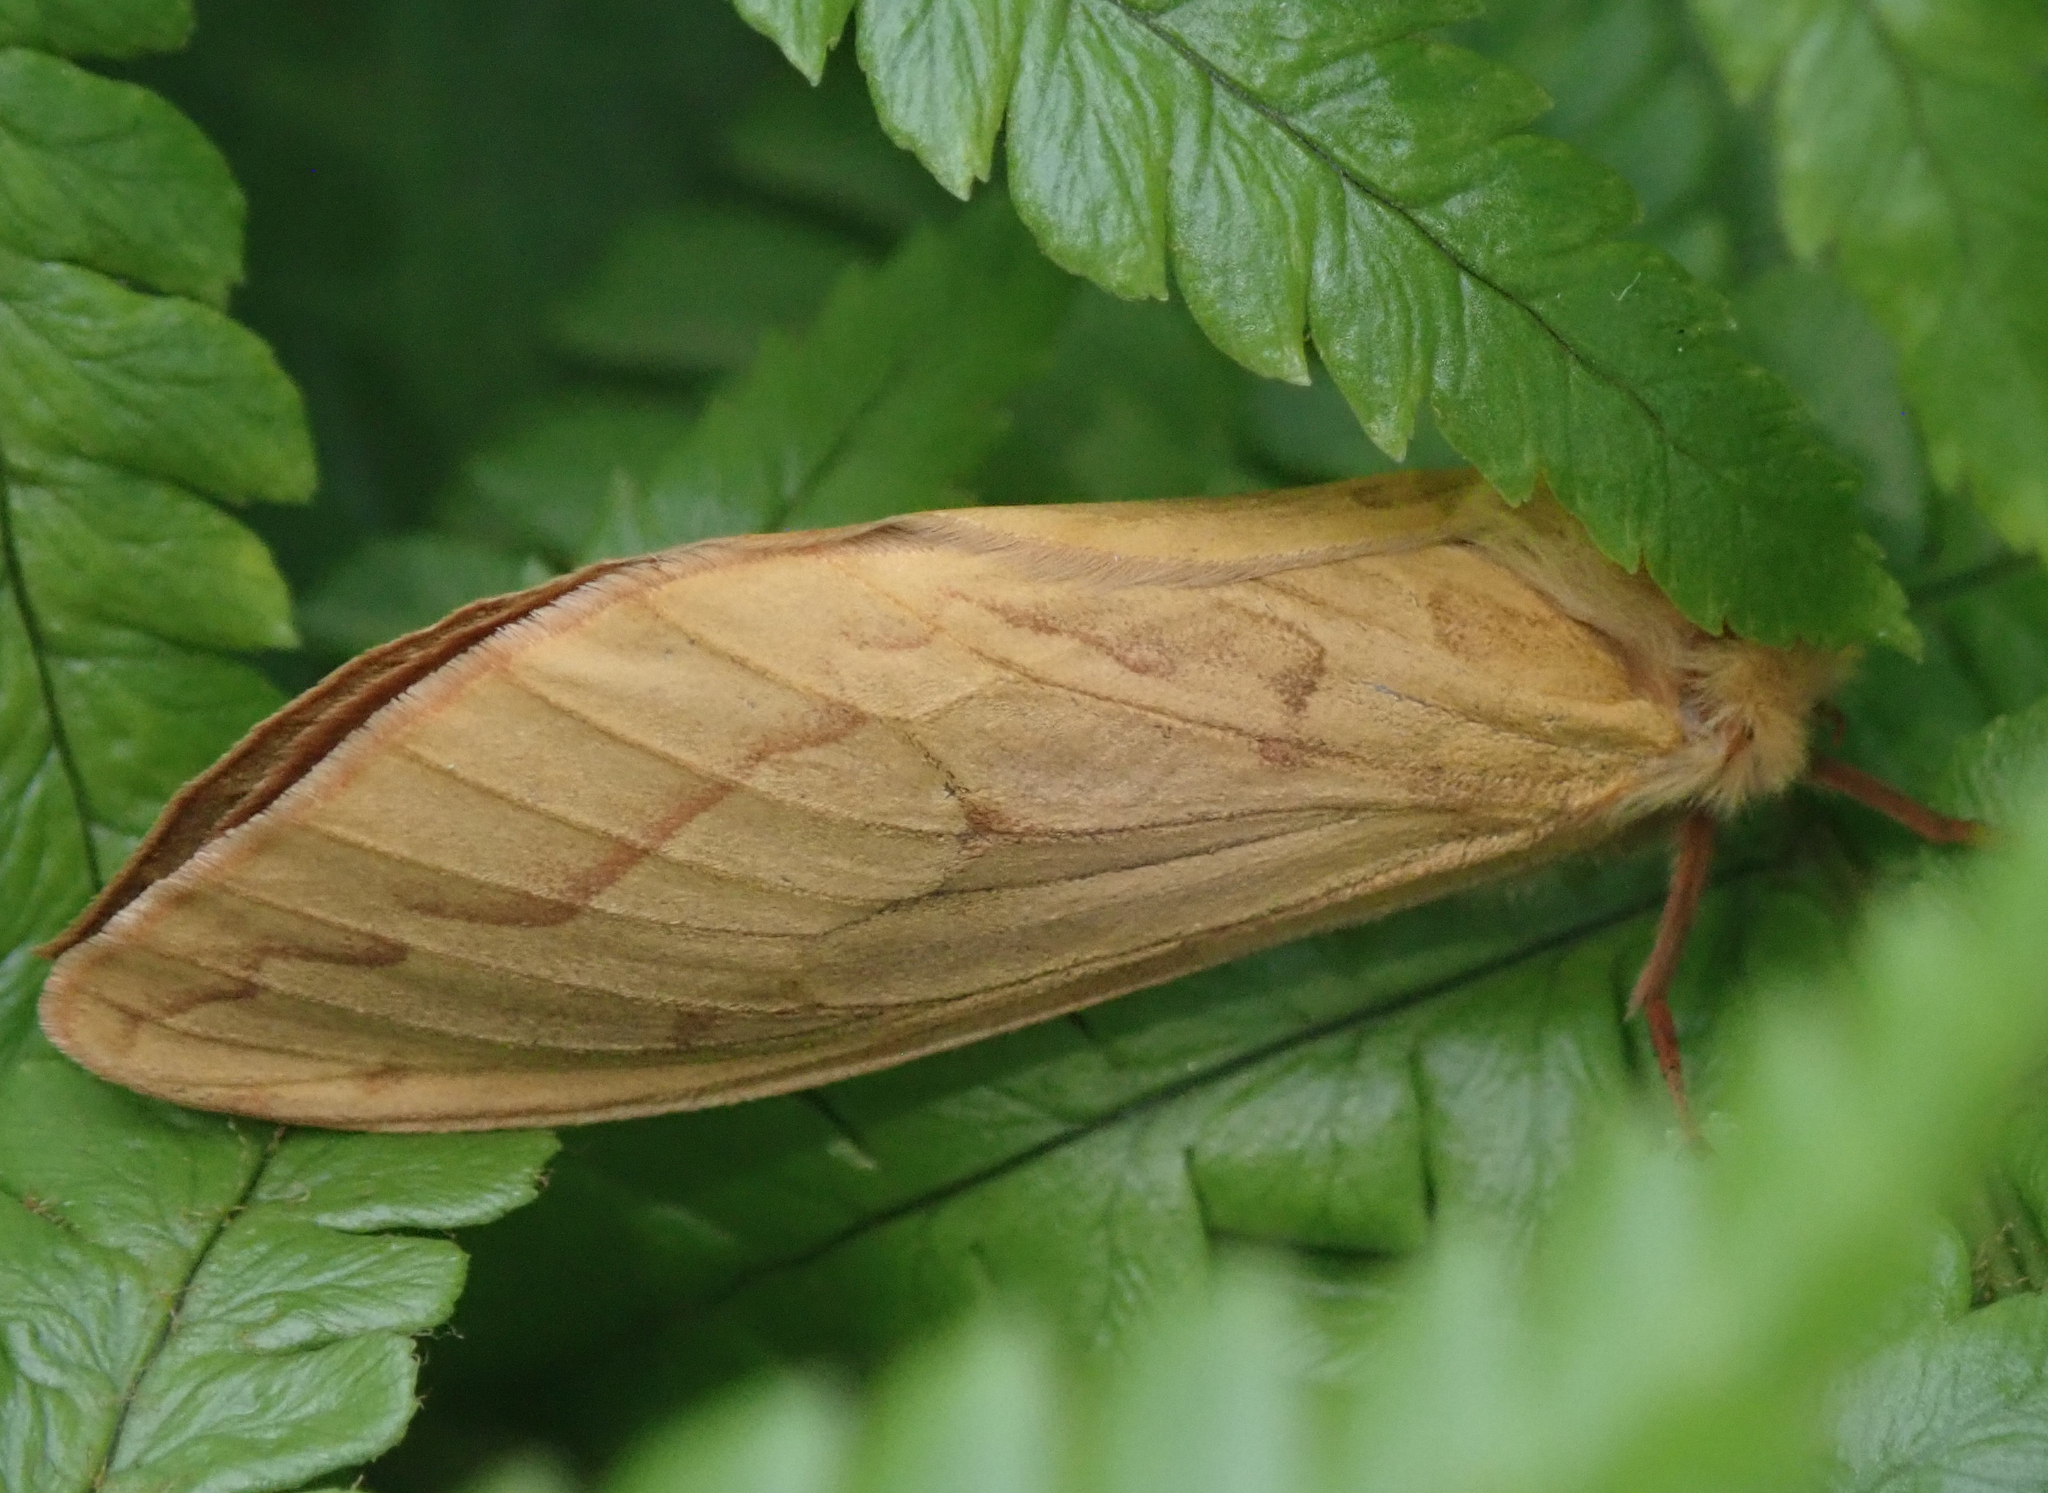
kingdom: Animalia
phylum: Arthropoda
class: Insecta
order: Lepidoptera
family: Hepialidae
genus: Hepialus
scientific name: Hepialus humuli
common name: Ghost moth
